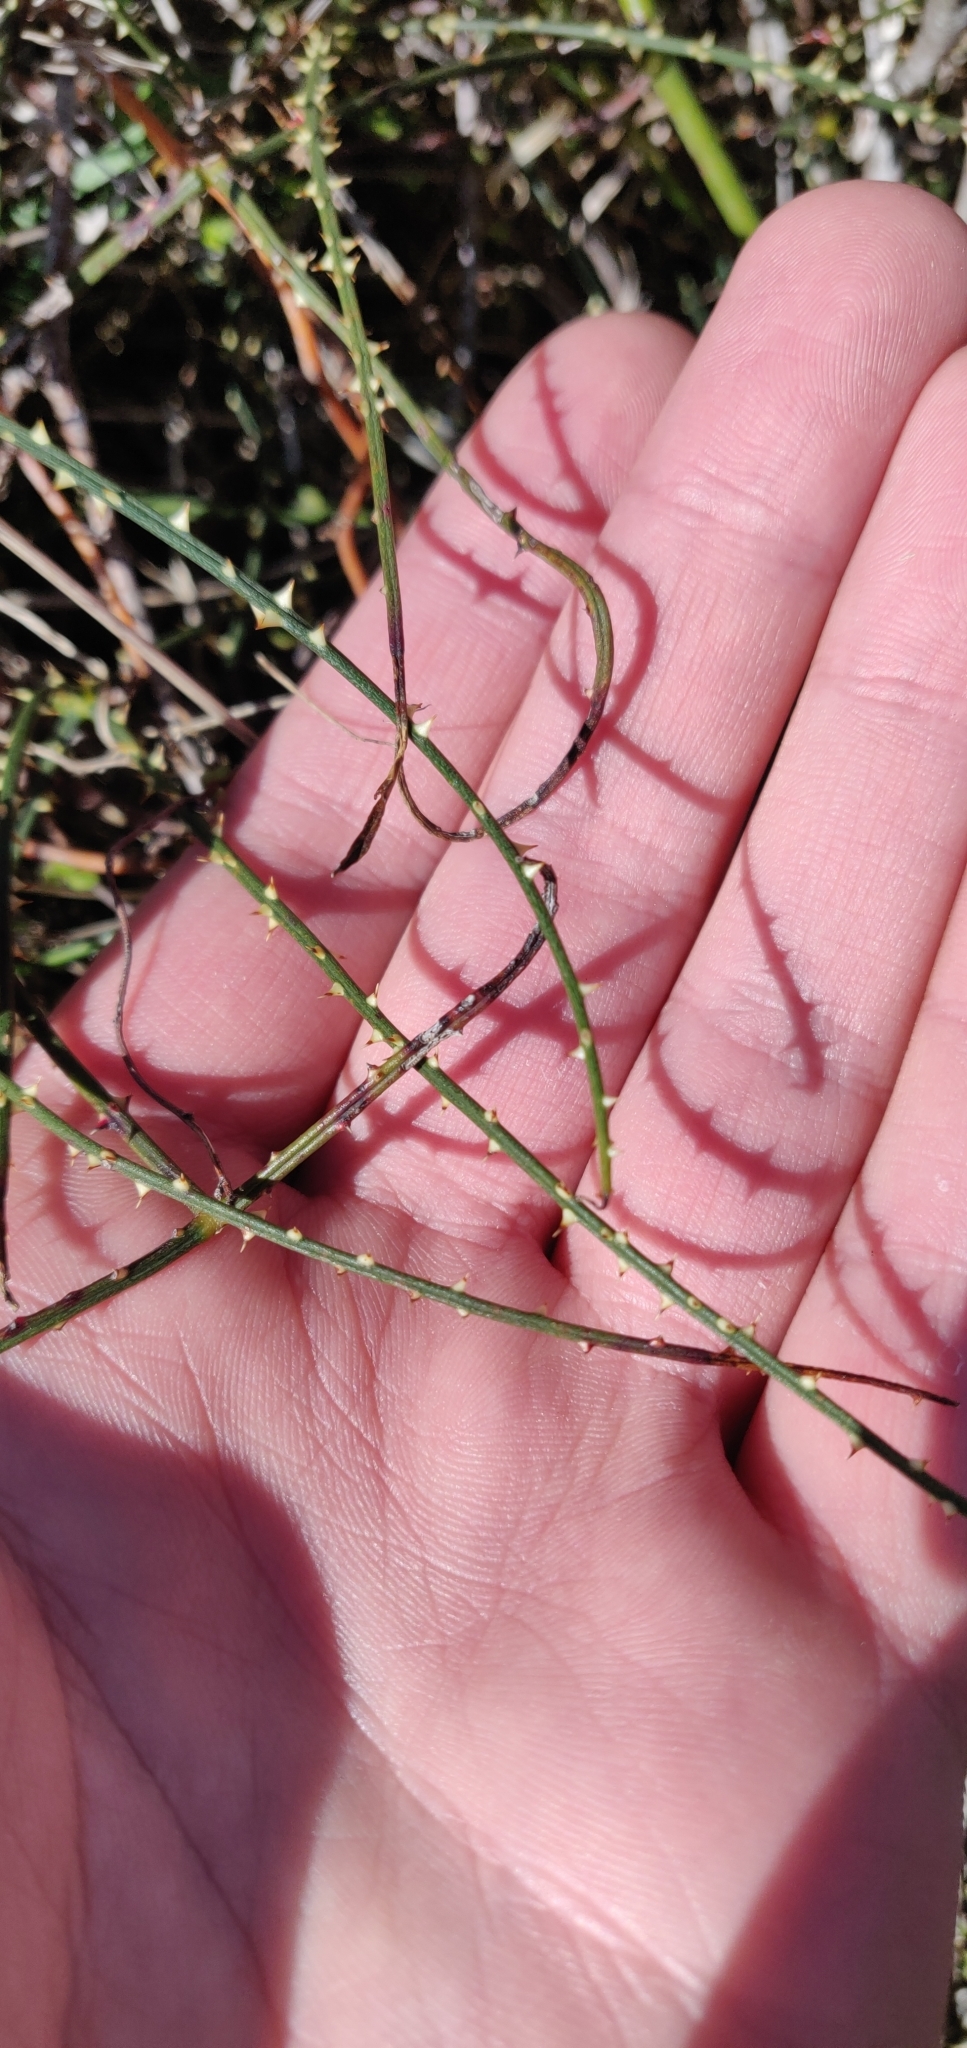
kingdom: Plantae
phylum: Tracheophyta
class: Magnoliopsida
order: Rosales
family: Rosaceae
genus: Rubus
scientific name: Rubus squarrosus
